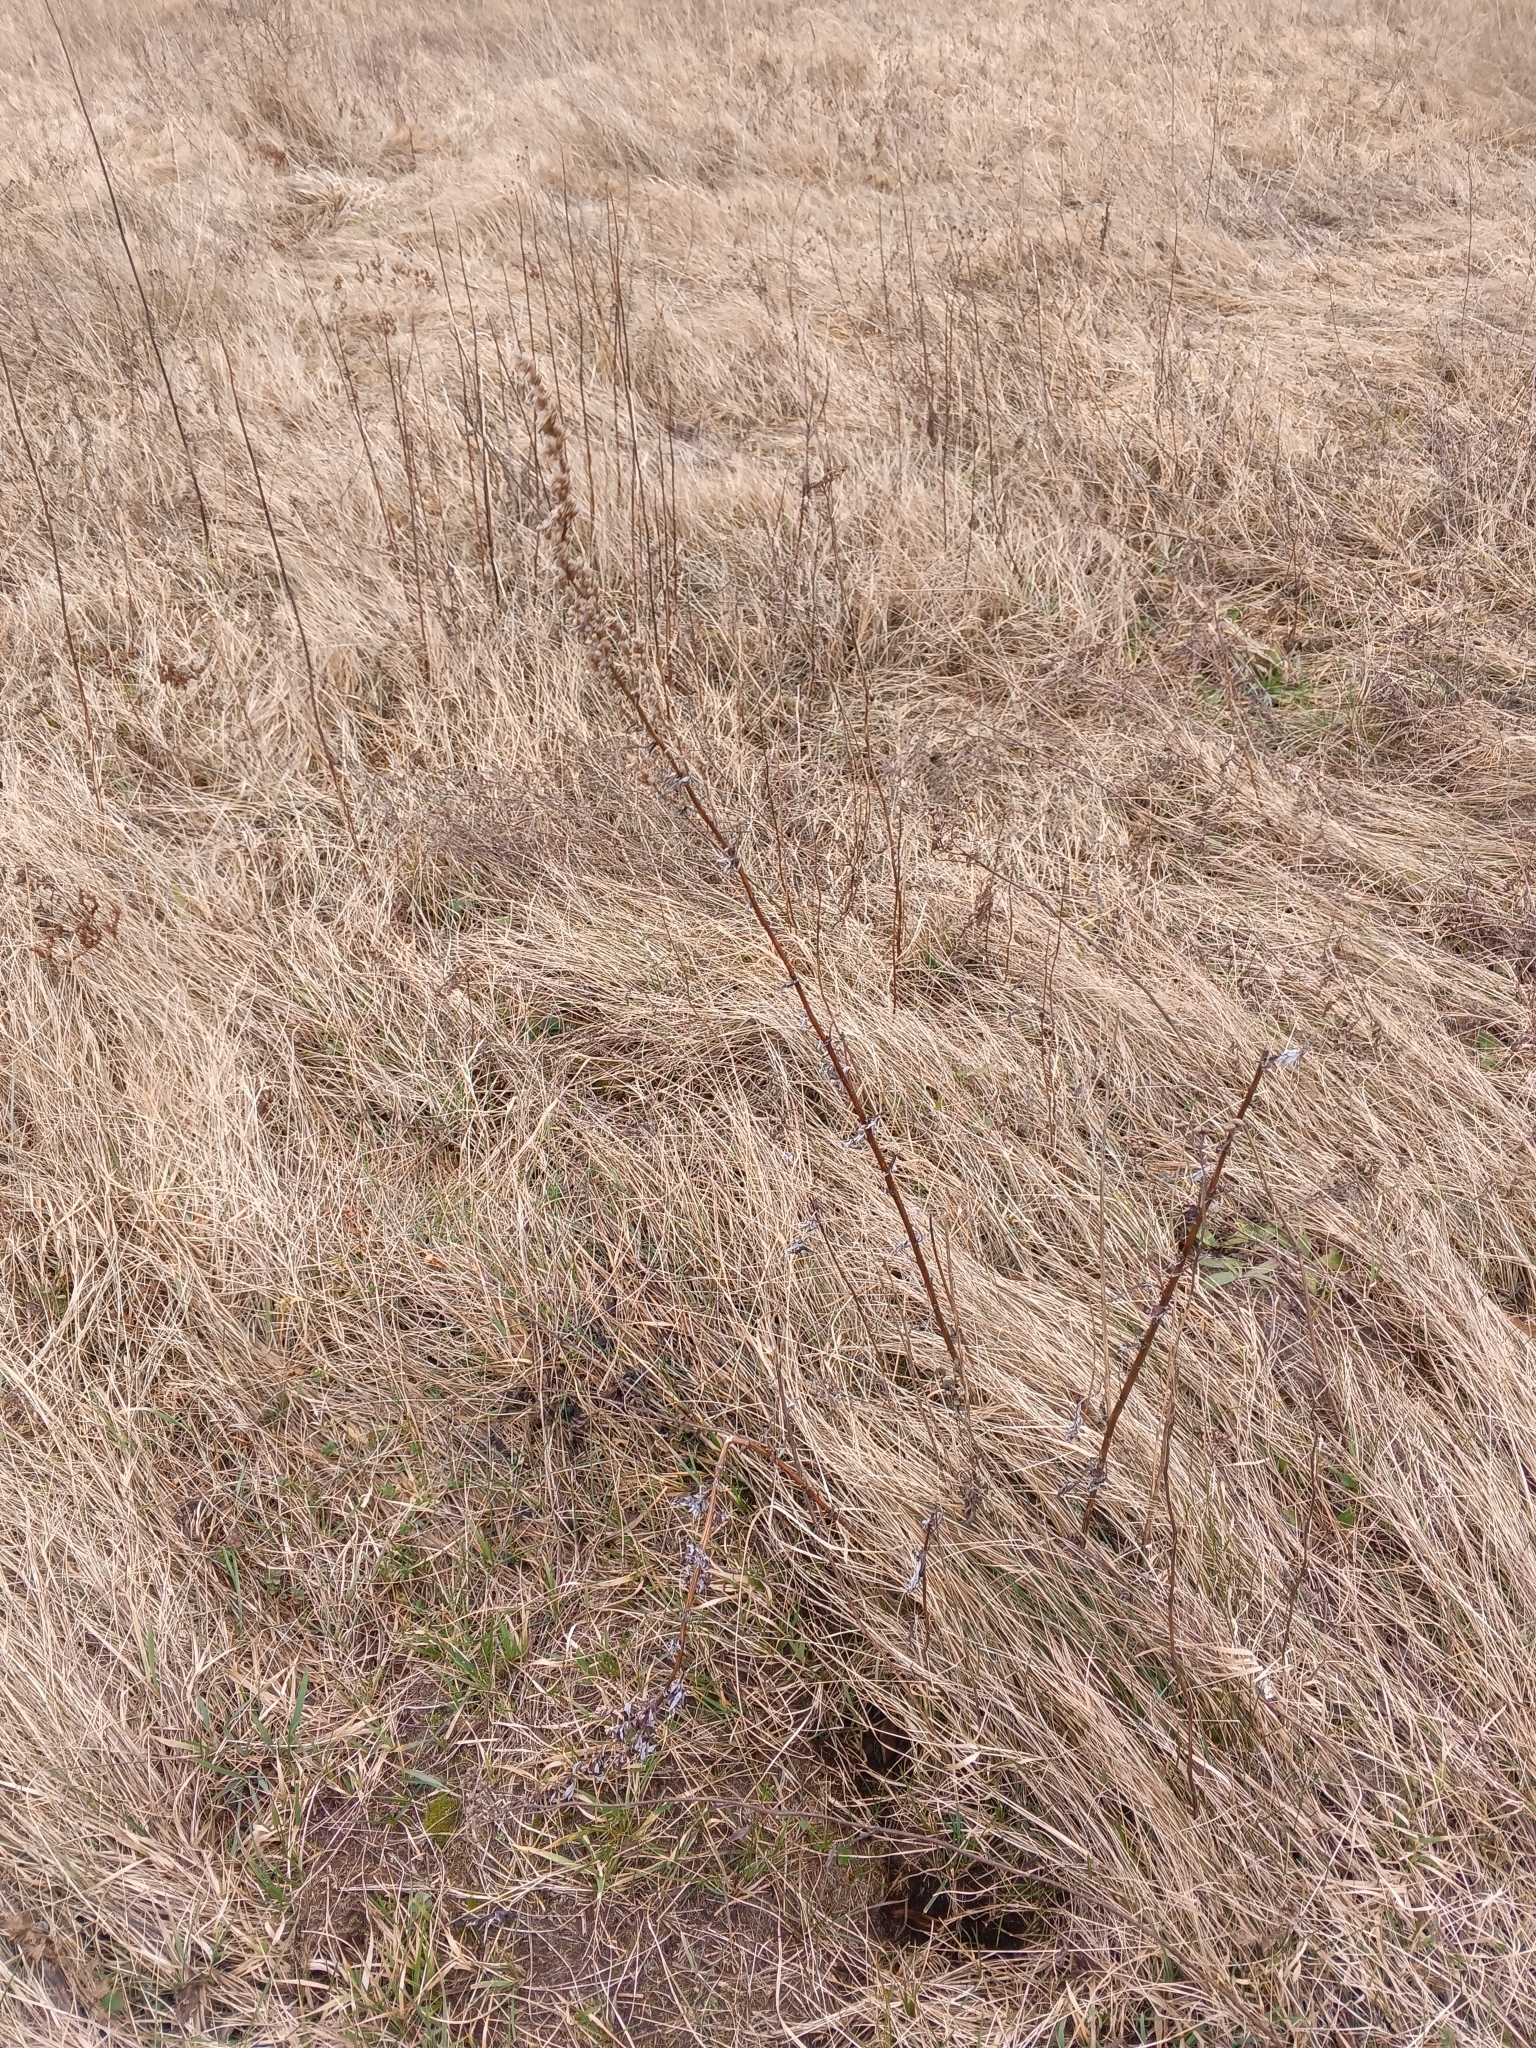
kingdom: Plantae
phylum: Tracheophyta
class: Magnoliopsida
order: Asterales
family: Asteraceae
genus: Artemisia
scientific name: Artemisia vulgaris
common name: Mugwort
